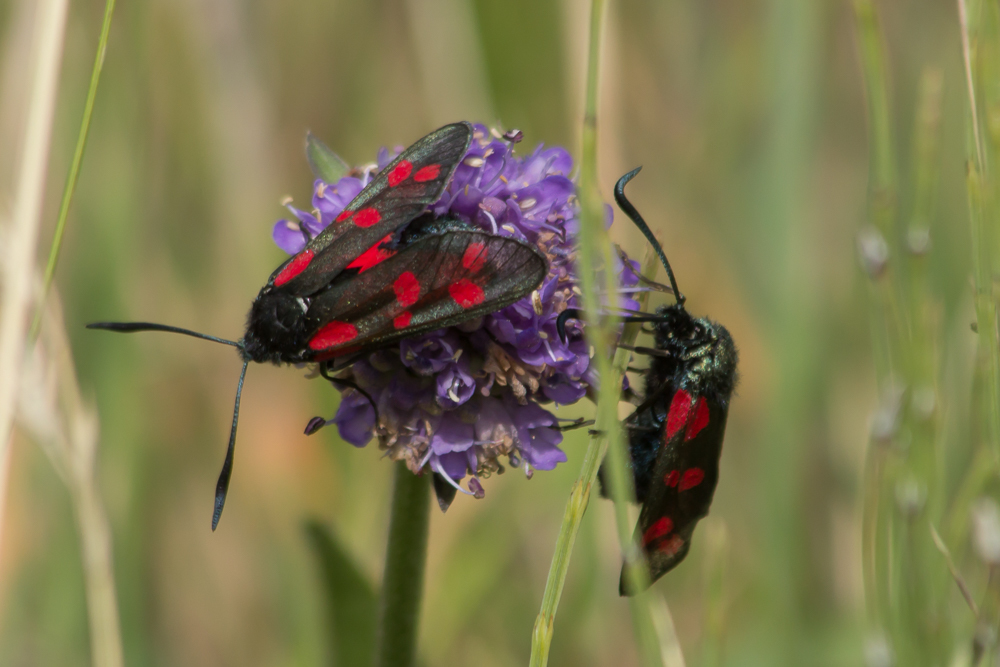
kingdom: Animalia
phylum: Arthropoda
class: Insecta
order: Lepidoptera
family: Zygaenidae
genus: Zygaena
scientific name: Zygaena filipendulae
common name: Six-spot burnet
